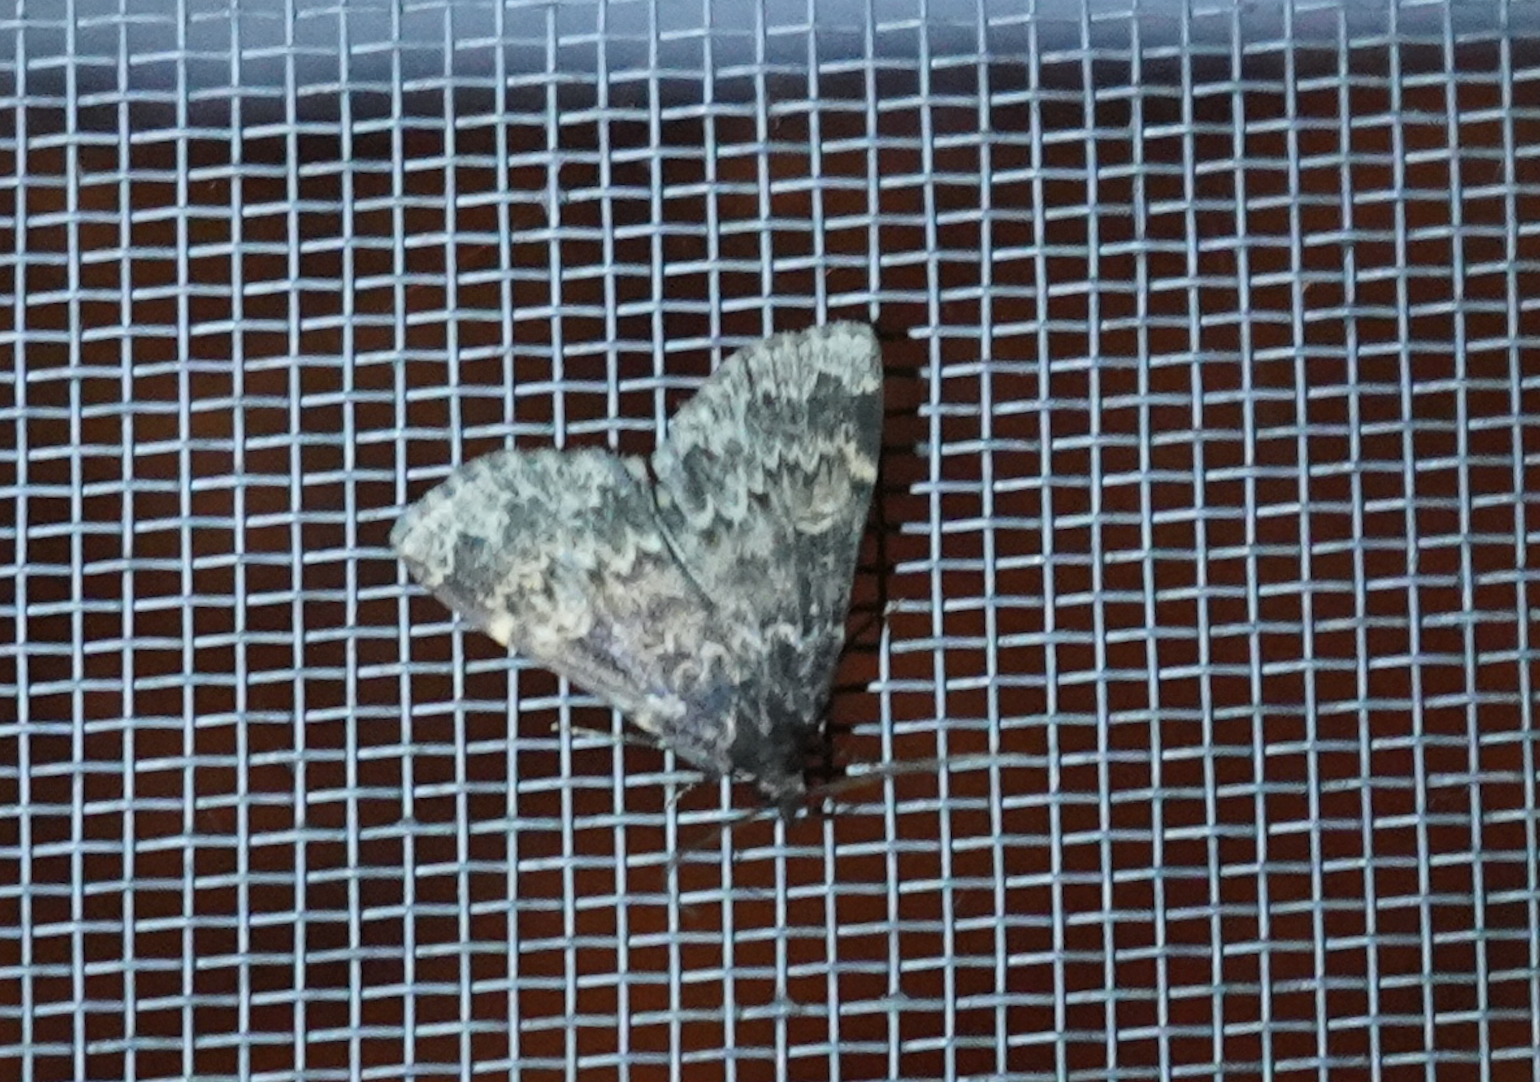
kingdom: Animalia
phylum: Arthropoda
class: Insecta
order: Lepidoptera
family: Erebidae
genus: Idia
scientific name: Idia lubricalis
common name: Twin-striped tabby
